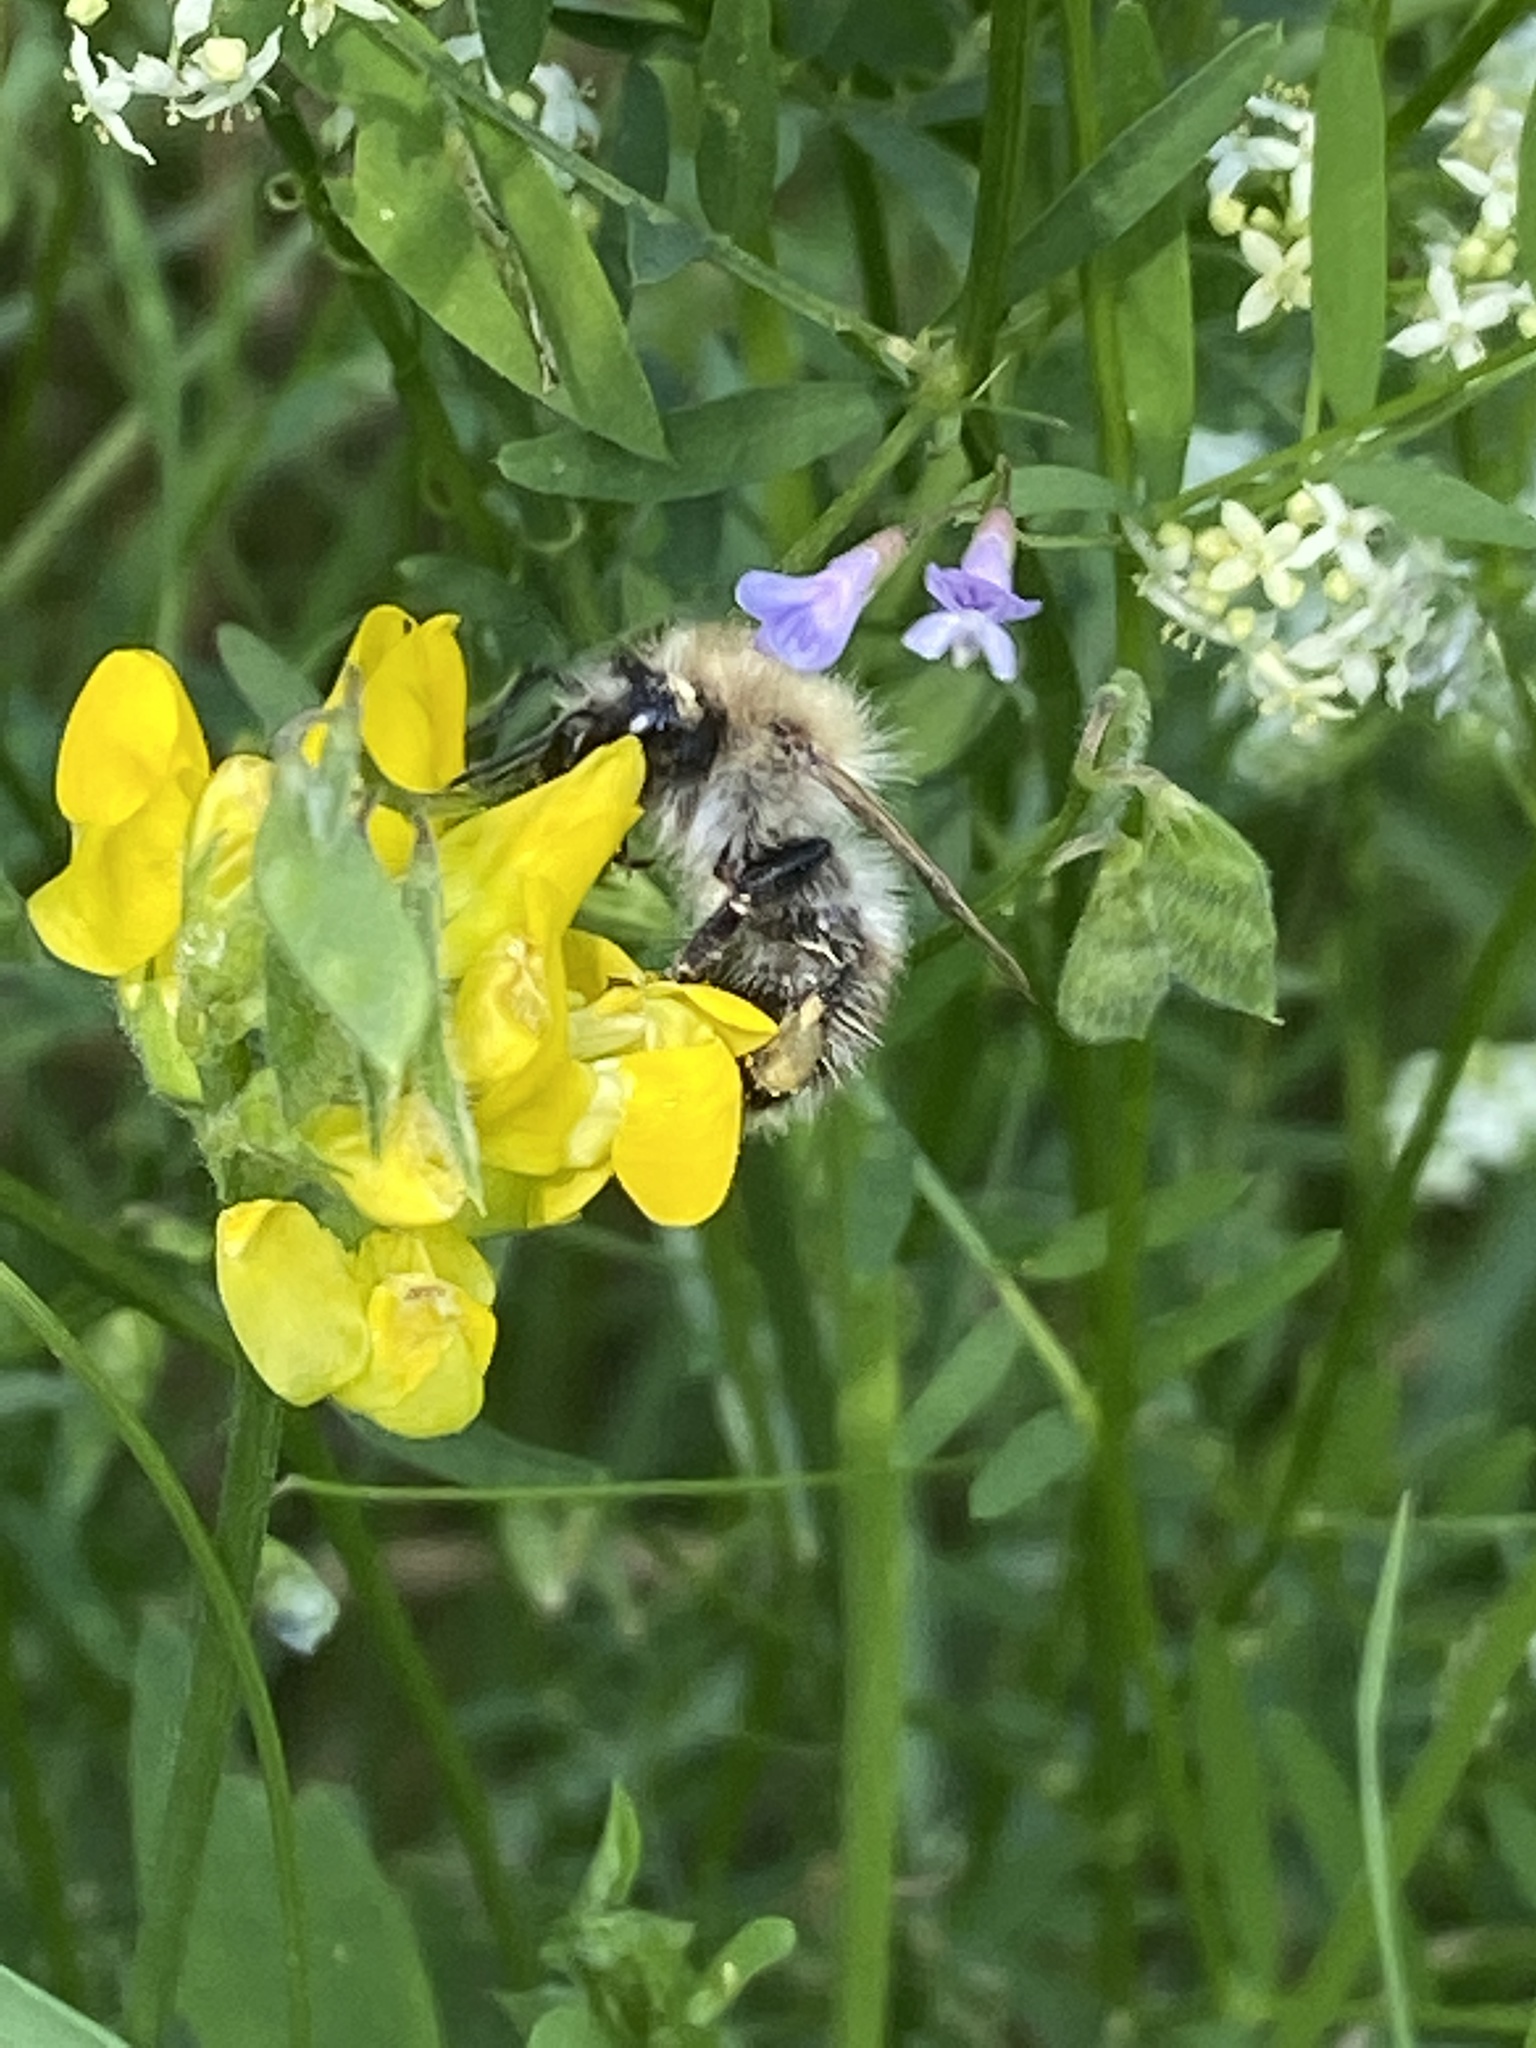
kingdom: Animalia
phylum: Arthropoda
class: Insecta
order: Hymenoptera
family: Apidae
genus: Bombus
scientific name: Bombus pascuorum
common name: Common carder bee
